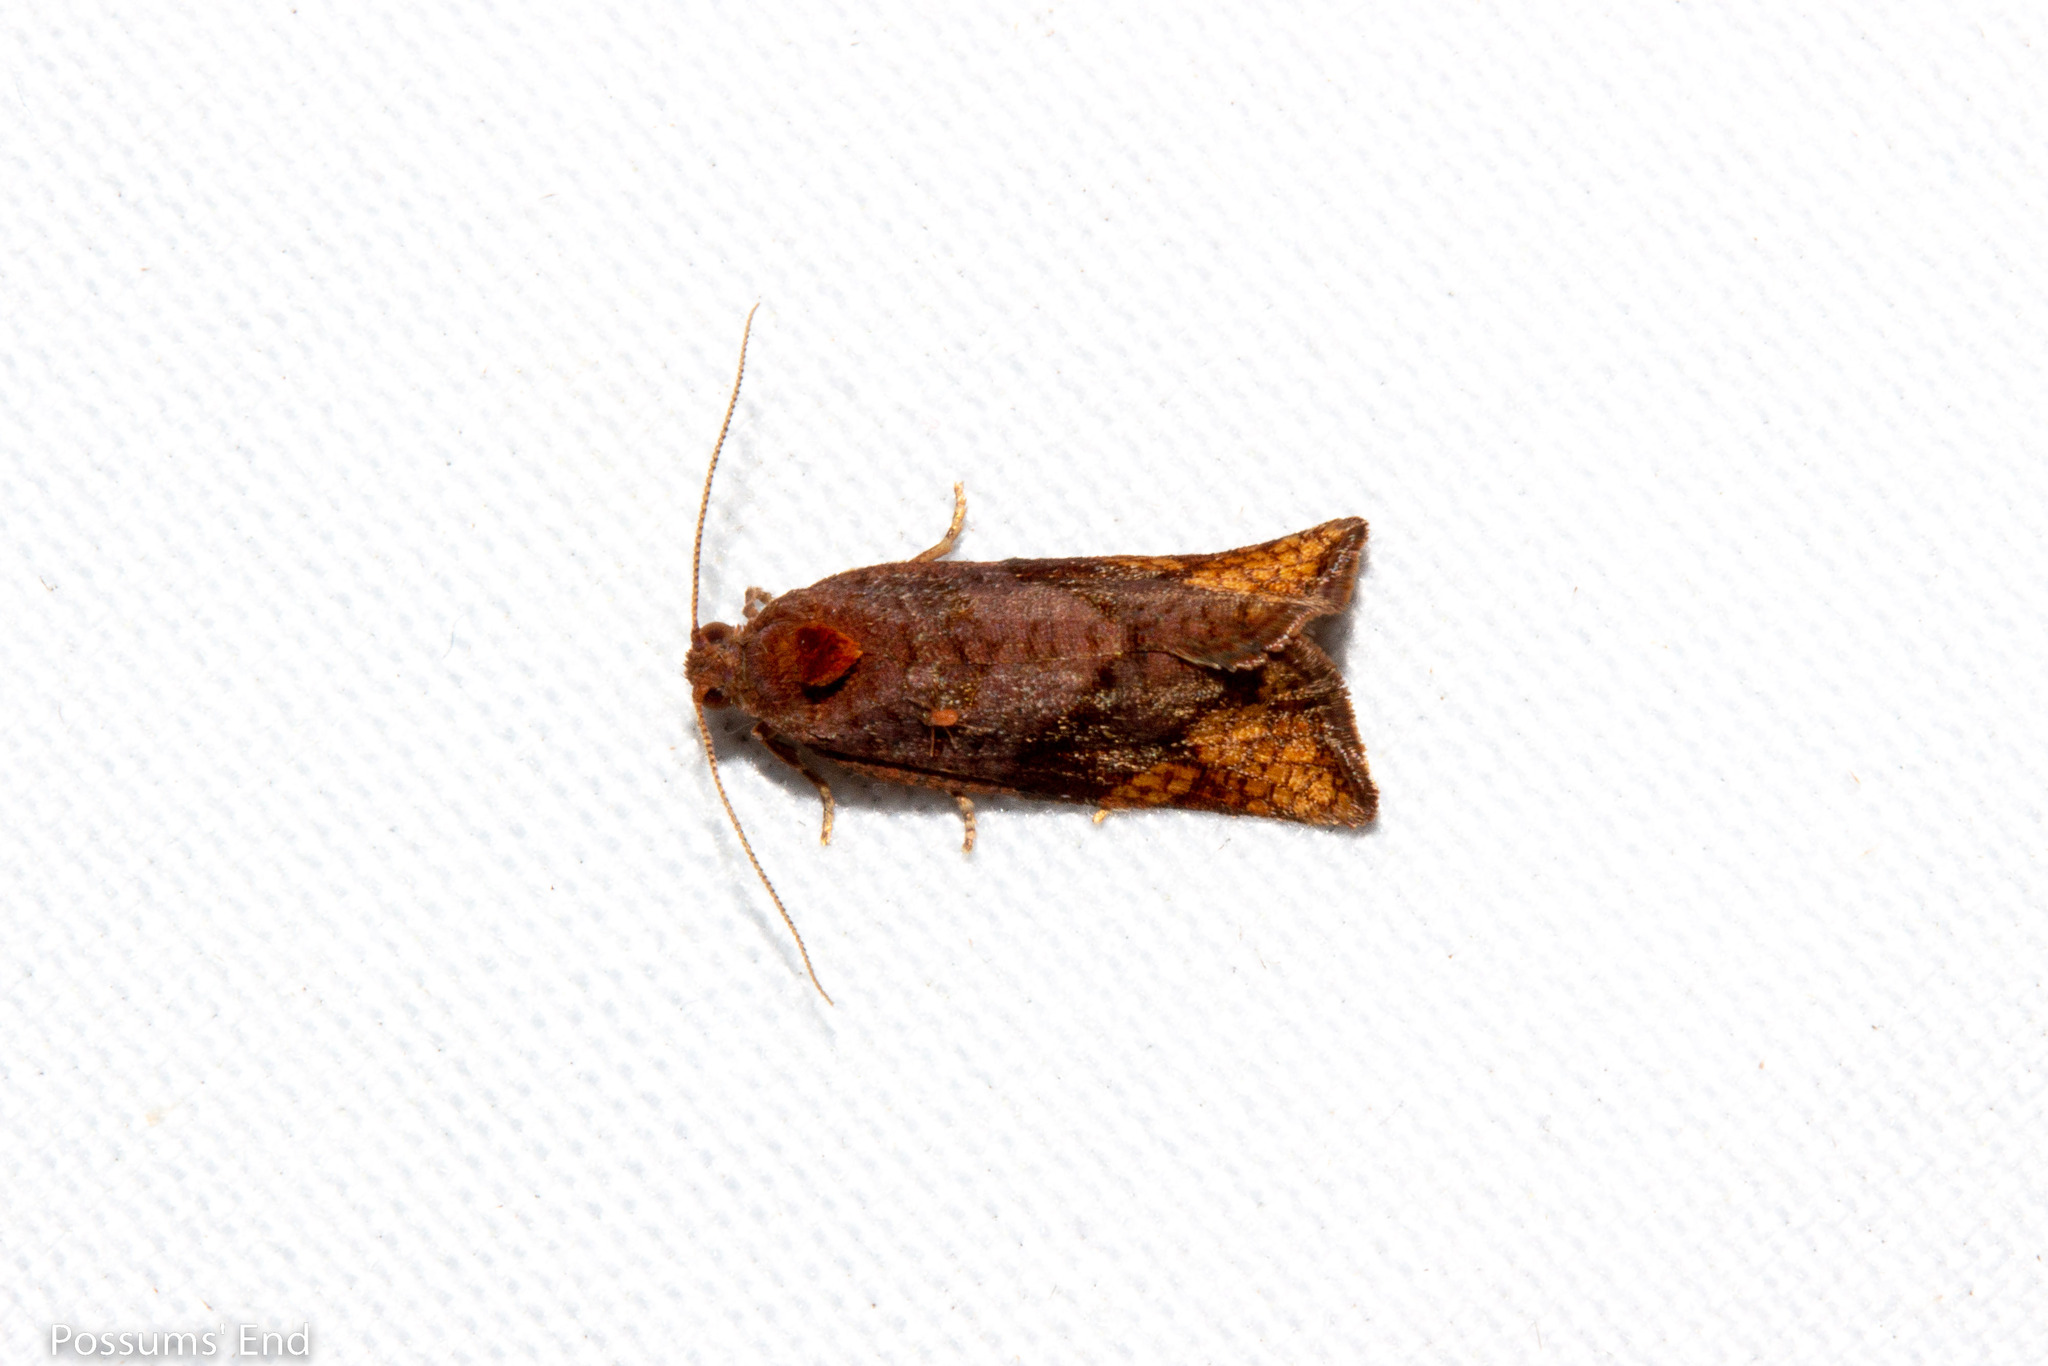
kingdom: Animalia
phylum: Arthropoda
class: Insecta
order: Lepidoptera
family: Tortricidae
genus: Pyrgotis
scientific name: Pyrgotis eudorana
